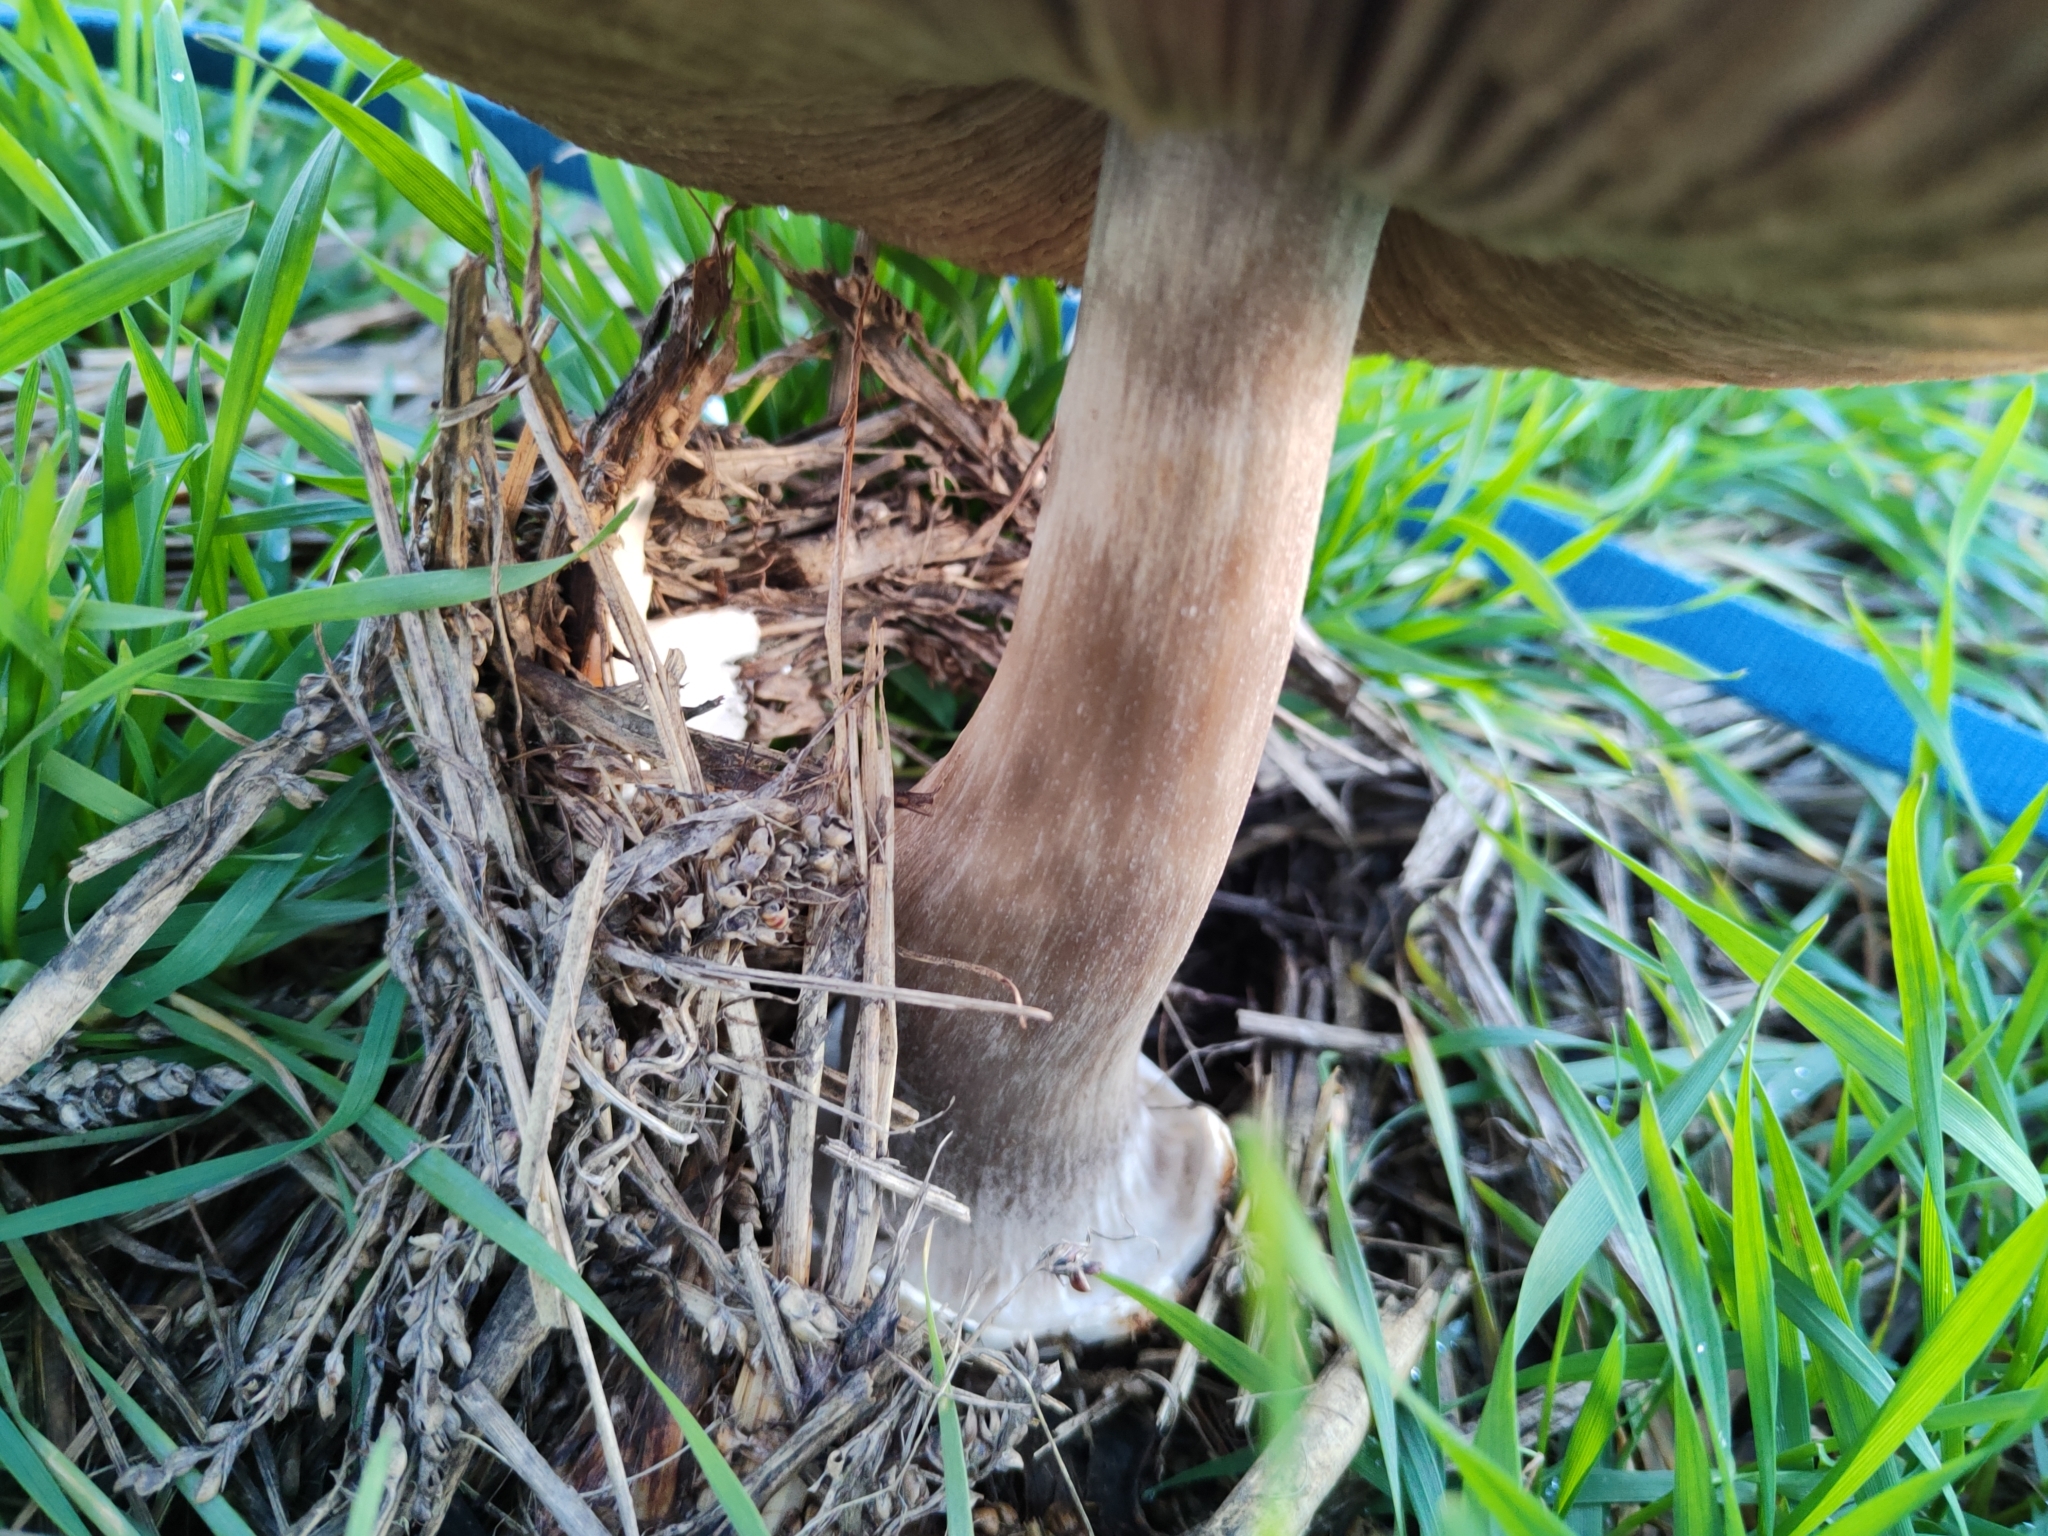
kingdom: Fungi
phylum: Basidiomycota
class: Agaricomycetes
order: Agaricales
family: Pluteaceae
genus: Volvopluteus
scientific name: Volvopluteus gloiocephalus
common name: Stubble rosegill
